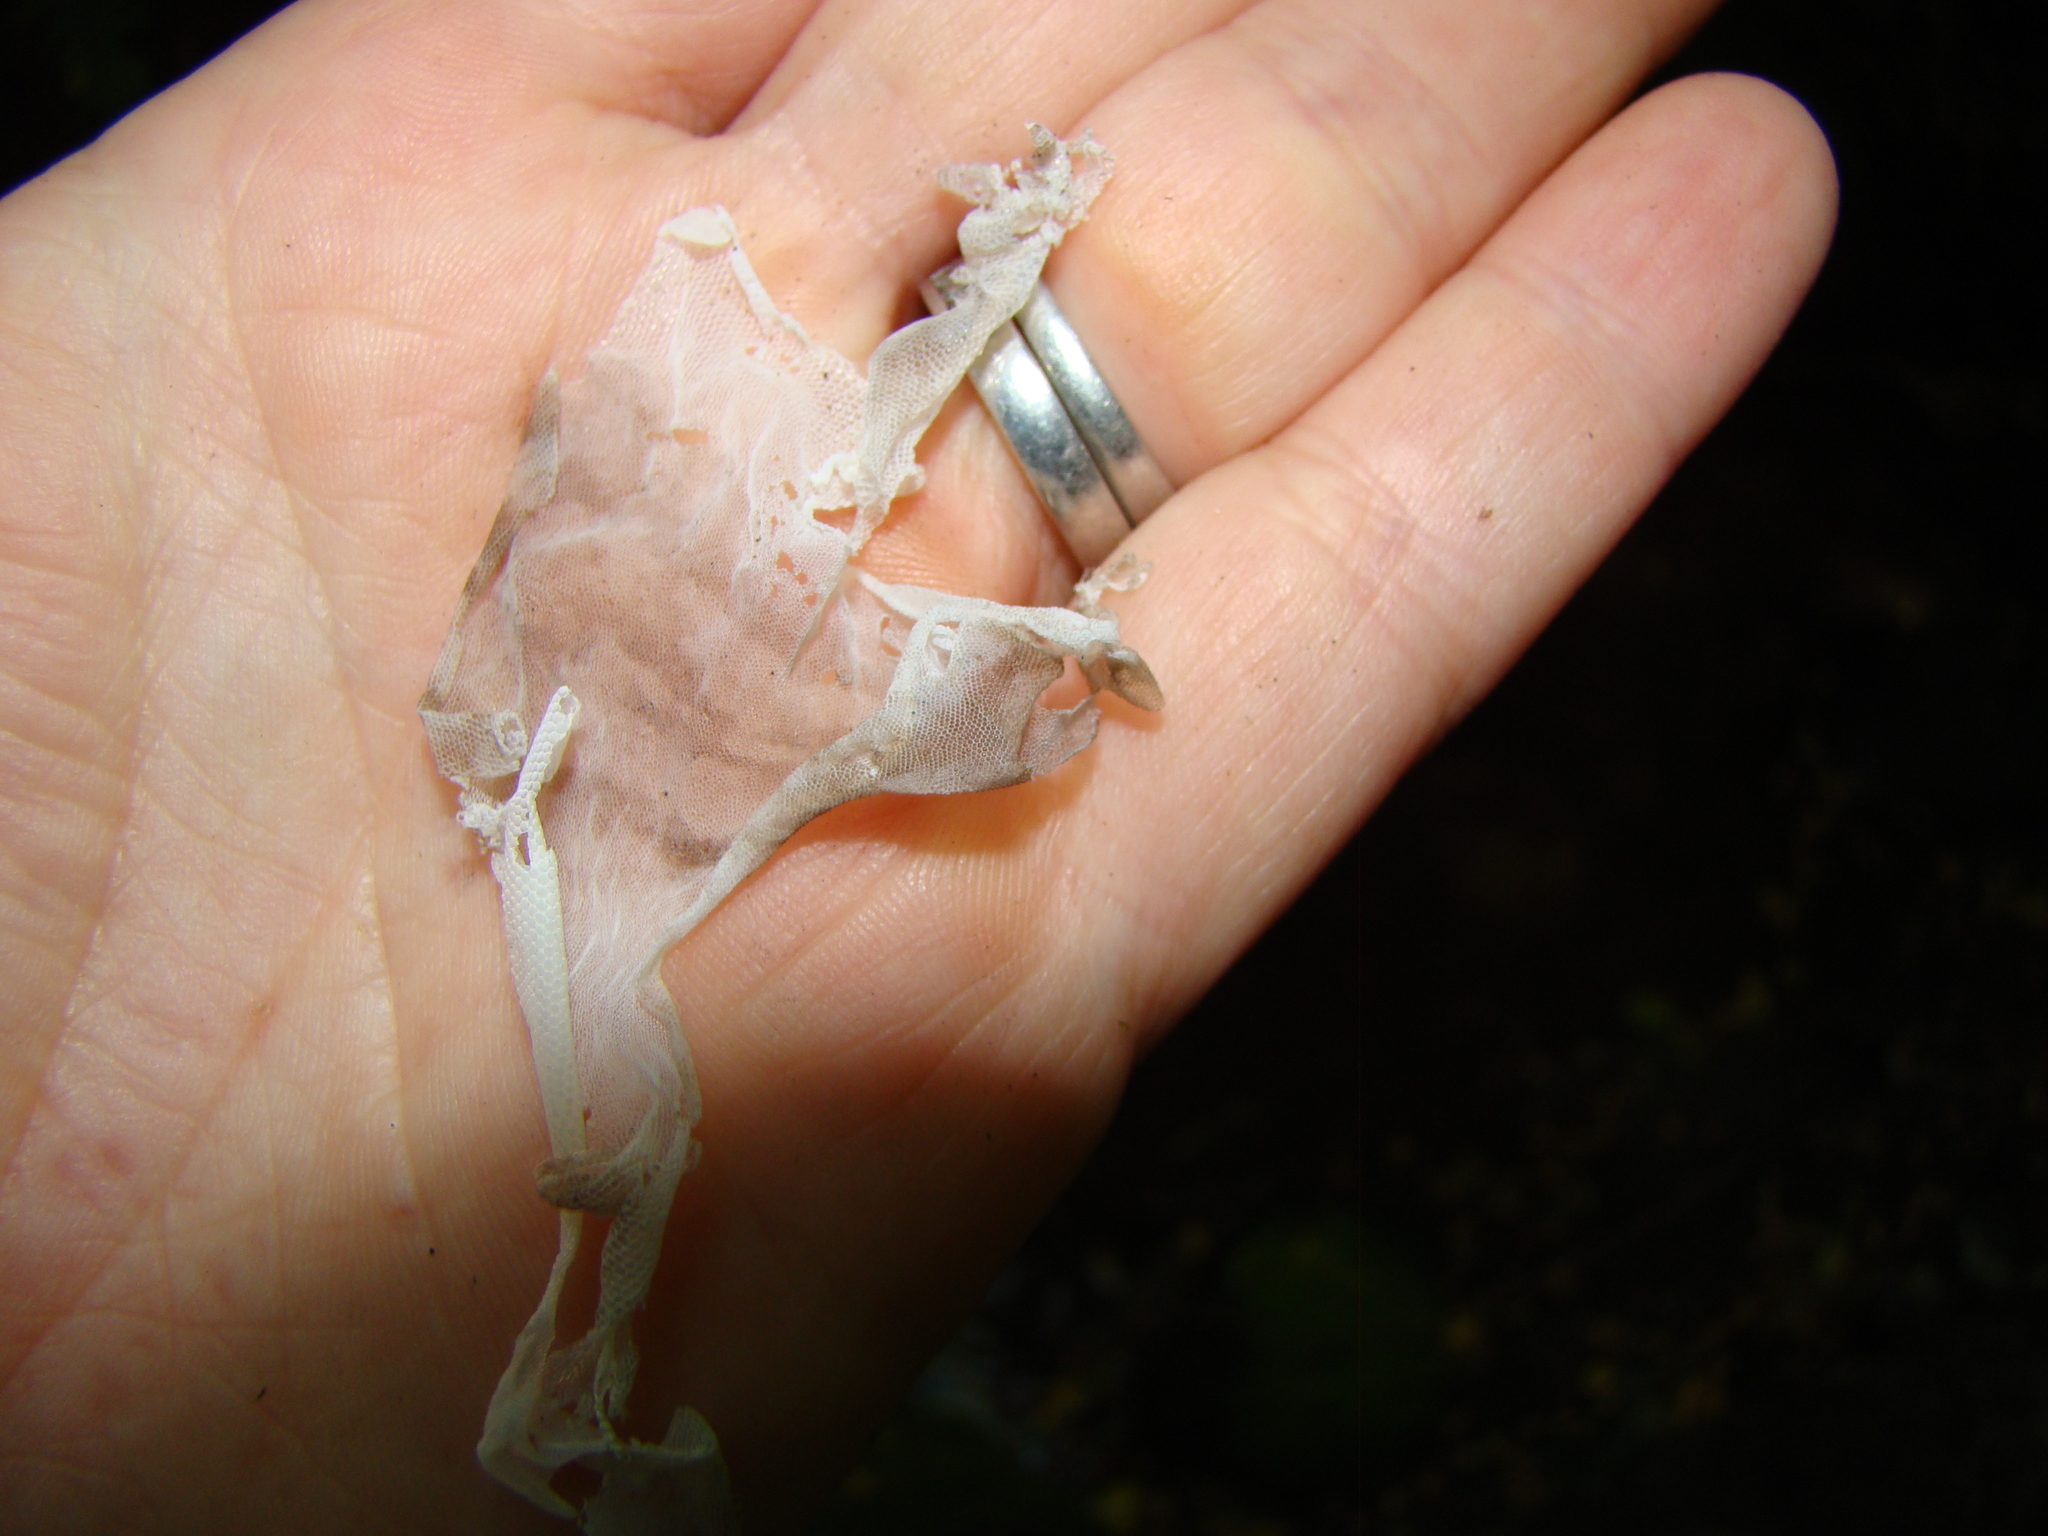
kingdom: Animalia
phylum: Chordata
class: Squamata
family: Diplodactylidae
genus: Woodworthia
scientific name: Woodworthia maculata
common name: Raukawa gecko
